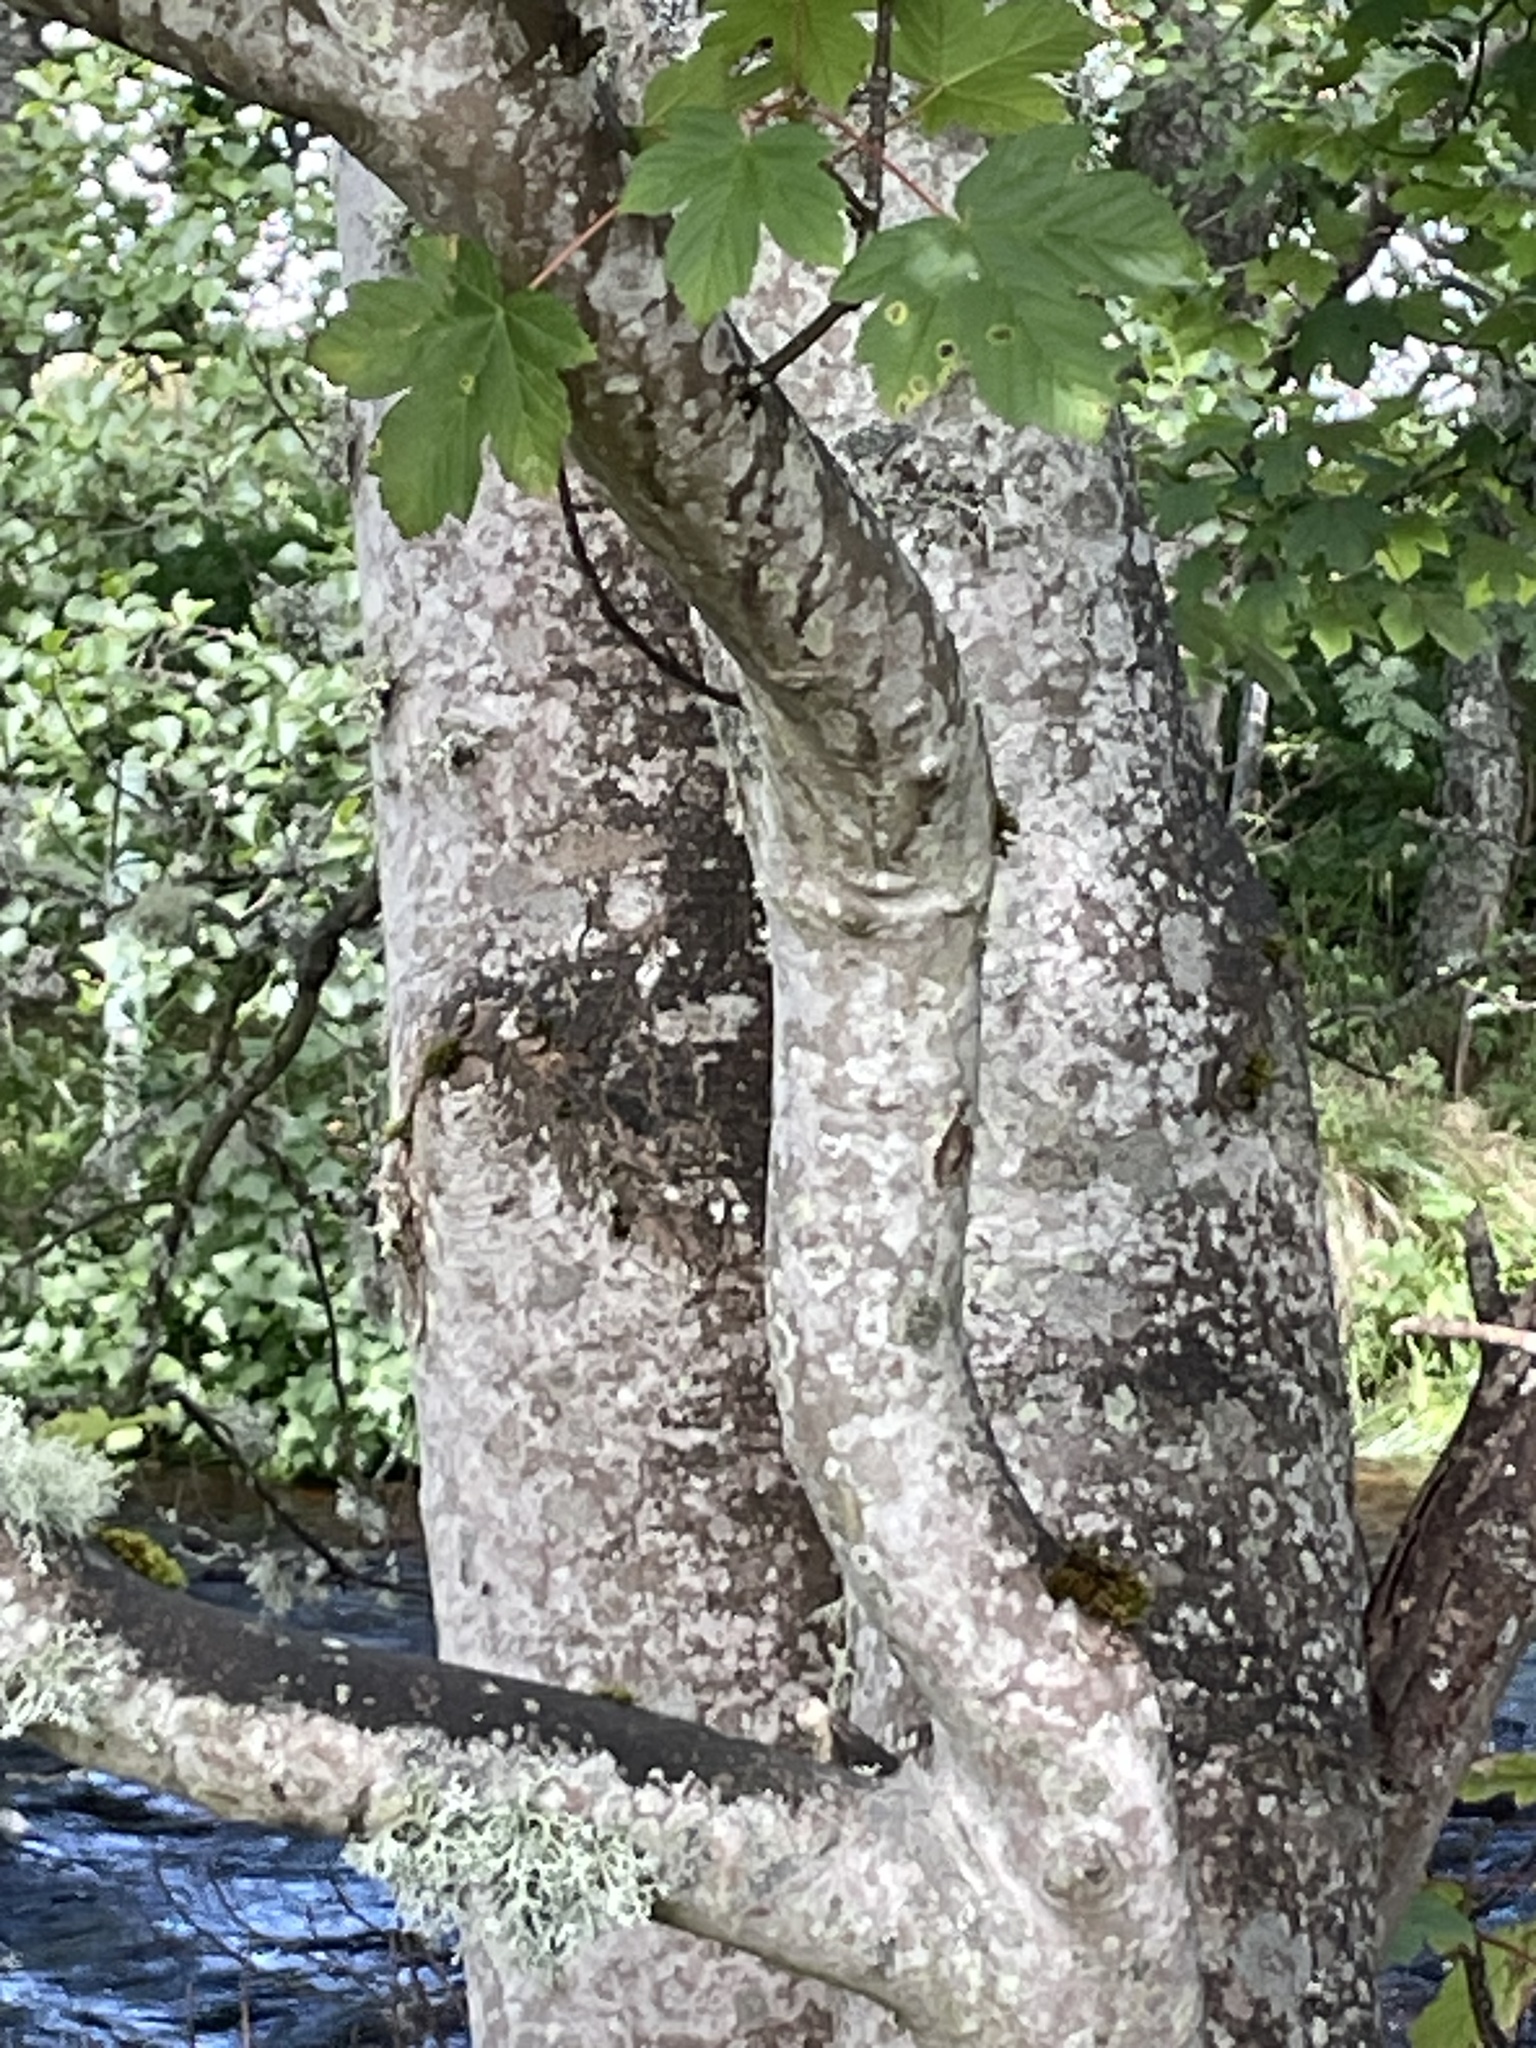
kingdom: Plantae
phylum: Tracheophyta
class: Magnoliopsida
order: Sapindales
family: Sapindaceae
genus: Acer
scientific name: Acer pseudoplatanus
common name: Sycamore
